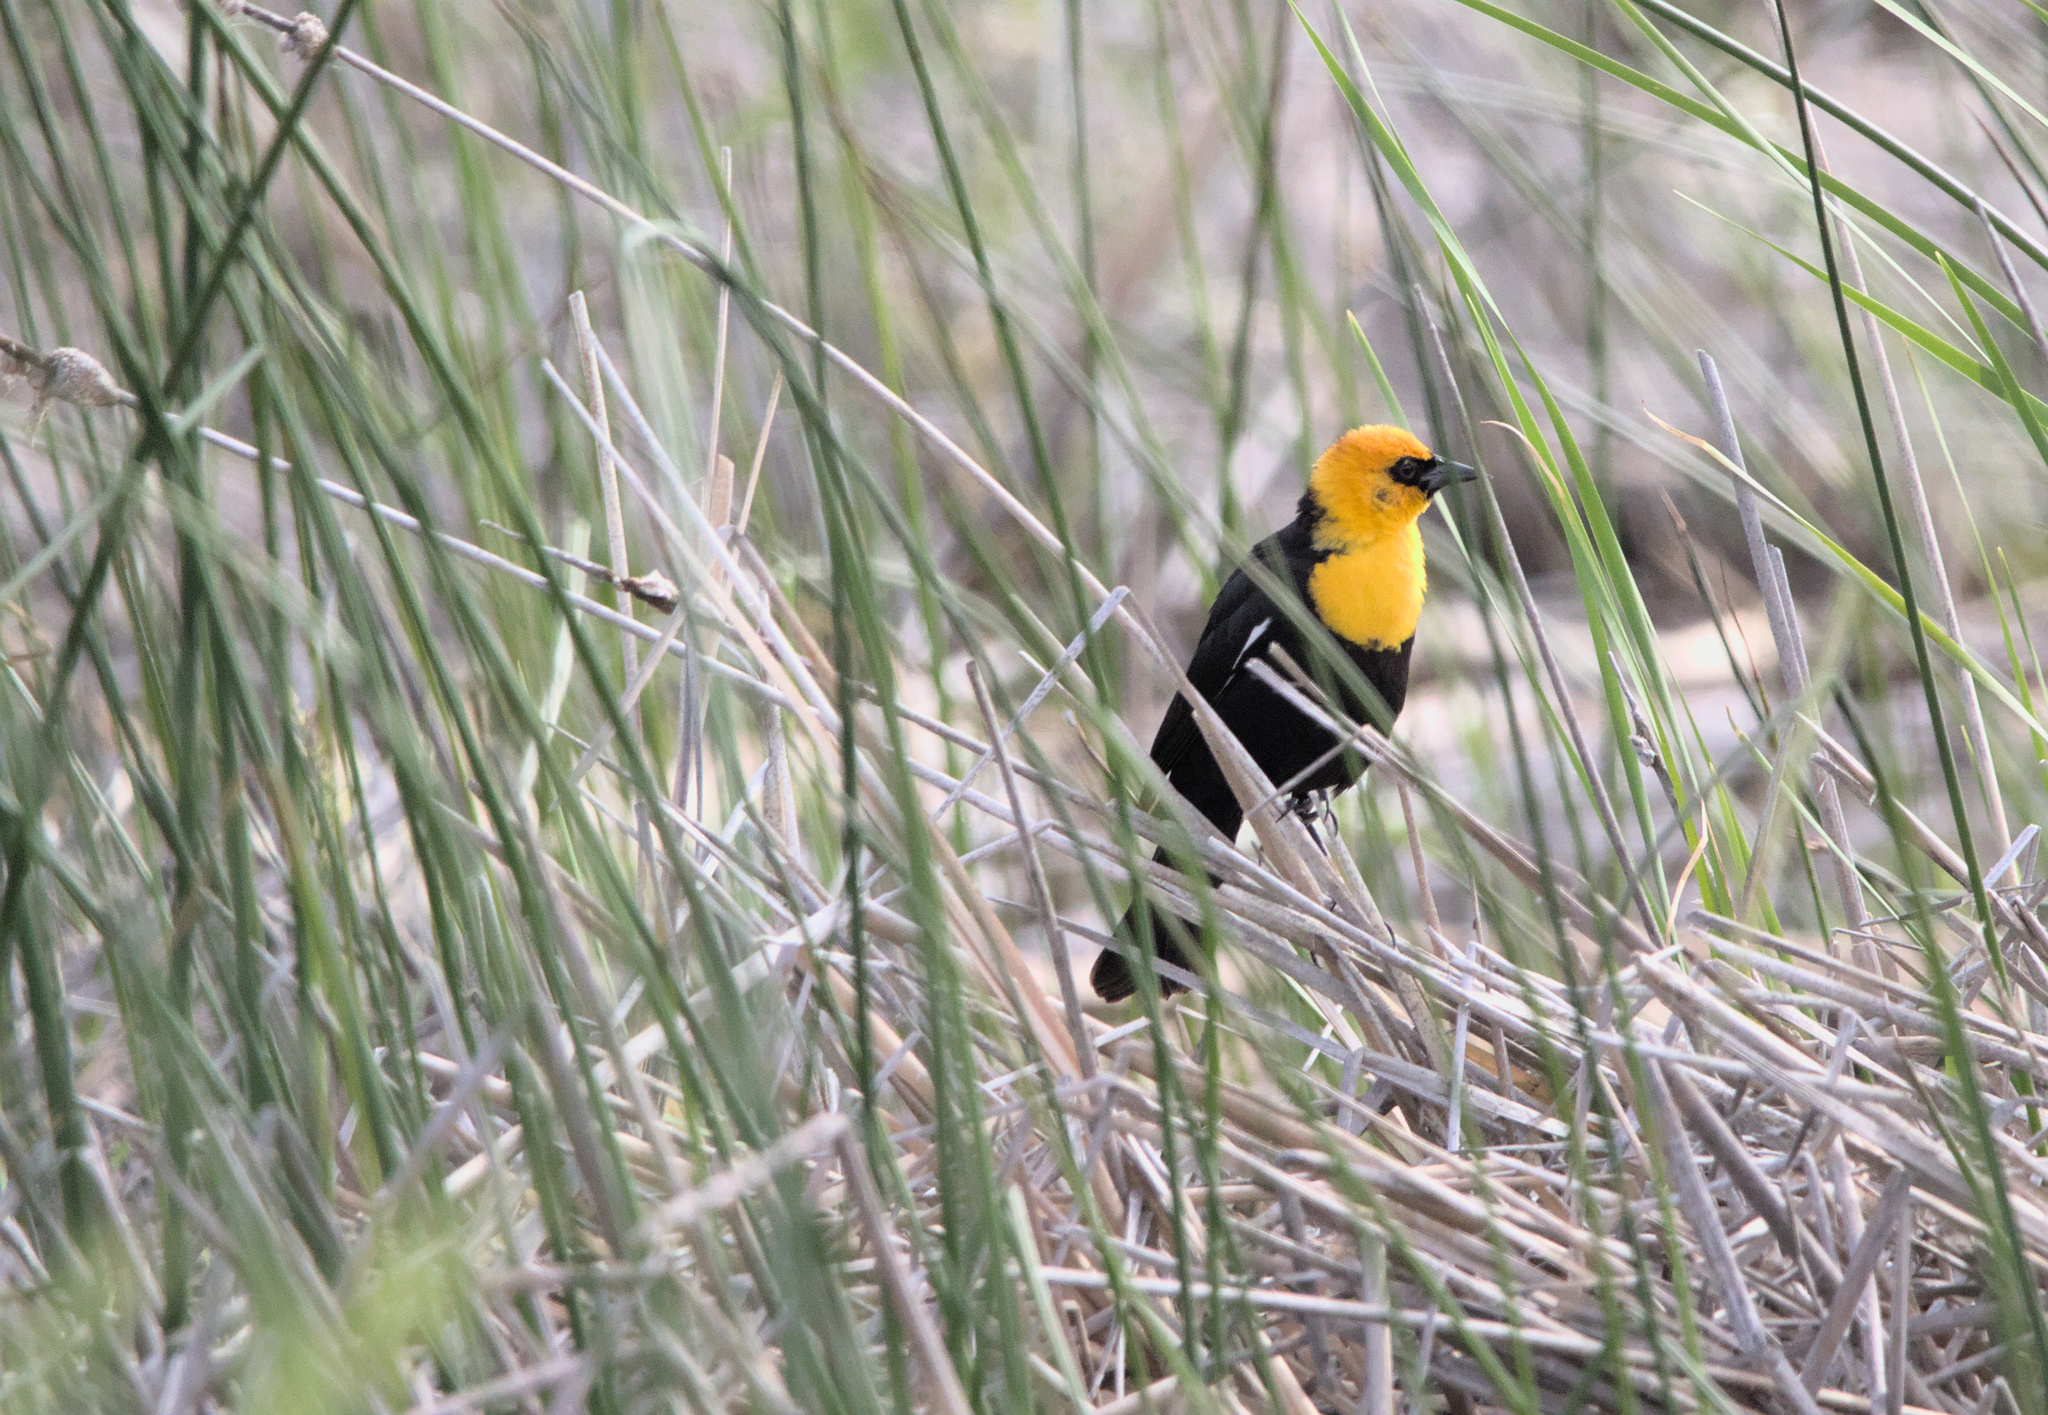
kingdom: Animalia
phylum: Chordata
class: Aves
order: Passeriformes
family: Icteridae
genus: Xanthocephalus
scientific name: Xanthocephalus xanthocephalus
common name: Yellow-headed blackbird
